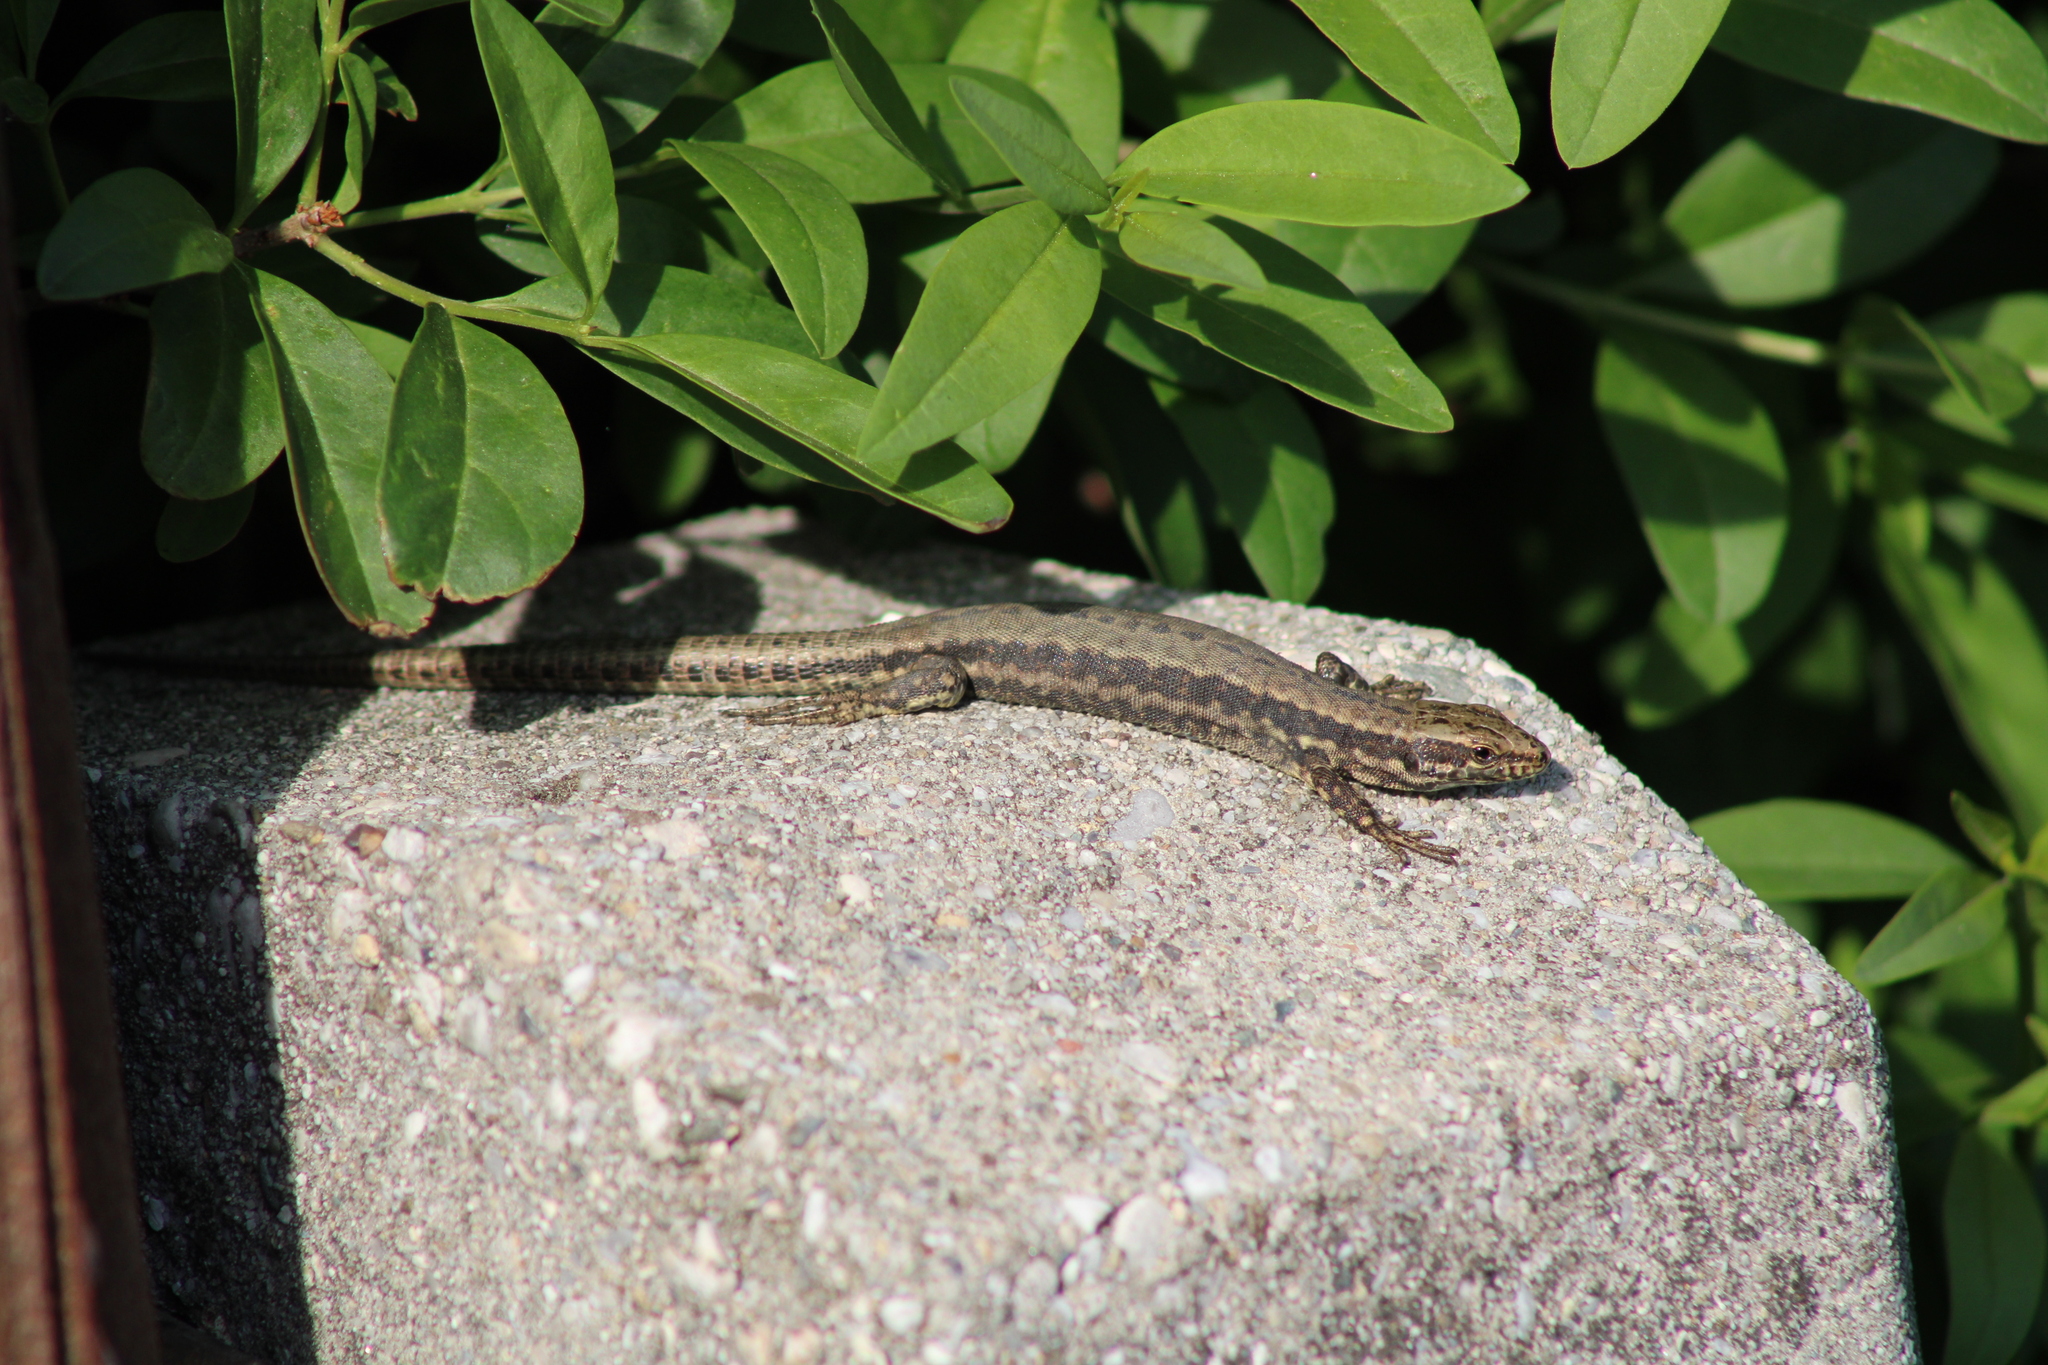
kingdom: Animalia
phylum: Chordata
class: Squamata
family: Lacertidae
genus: Podarcis
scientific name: Podarcis muralis
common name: Common wall lizard
